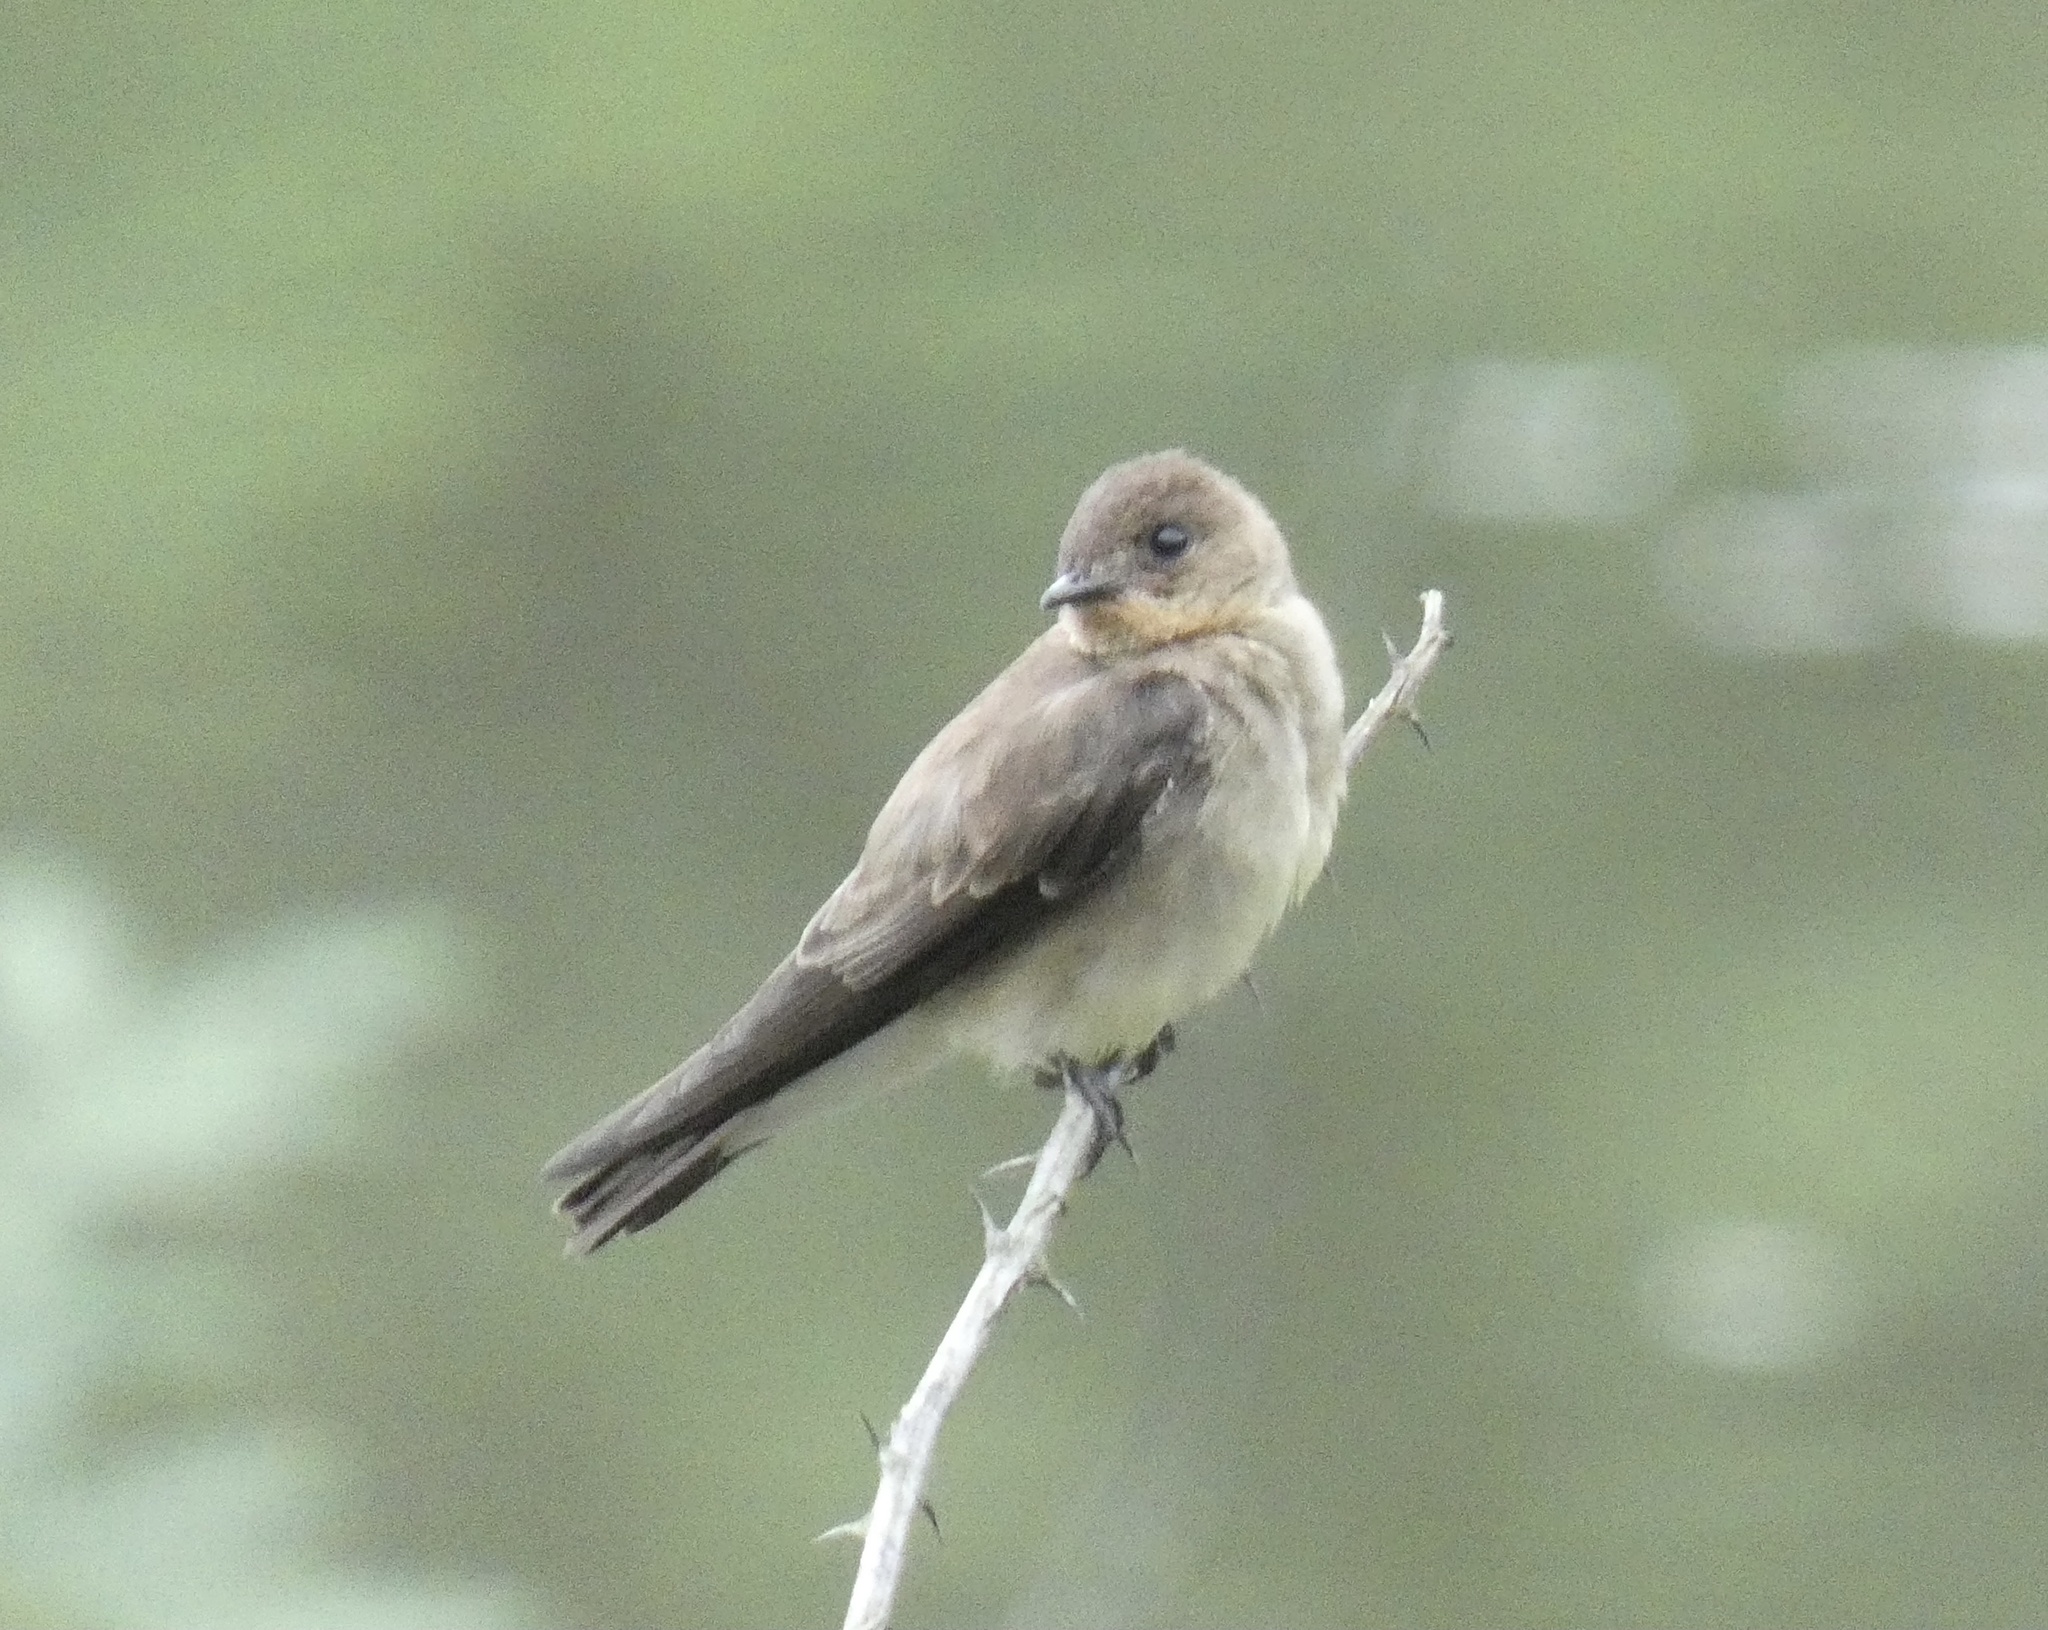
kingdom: Animalia
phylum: Chordata
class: Aves
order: Passeriformes
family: Hirundinidae
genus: Stelgidopteryx
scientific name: Stelgidopteryx ruficollis
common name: Southern rough-winged swallow
